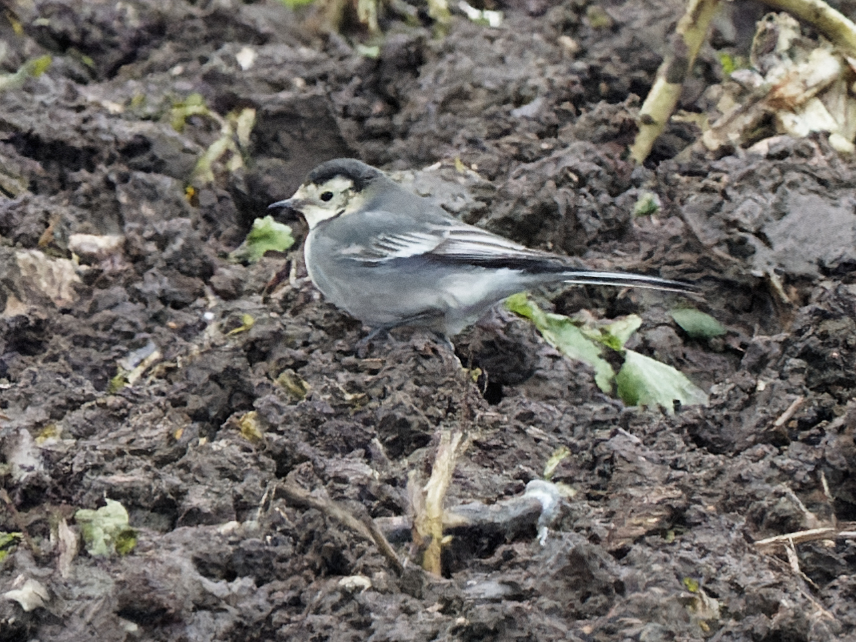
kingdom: Animalia
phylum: Chordata
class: Aves
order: Passeriformes
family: Motacillidae
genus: Motacilla
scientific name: Motacilla alba
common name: White wagtail
